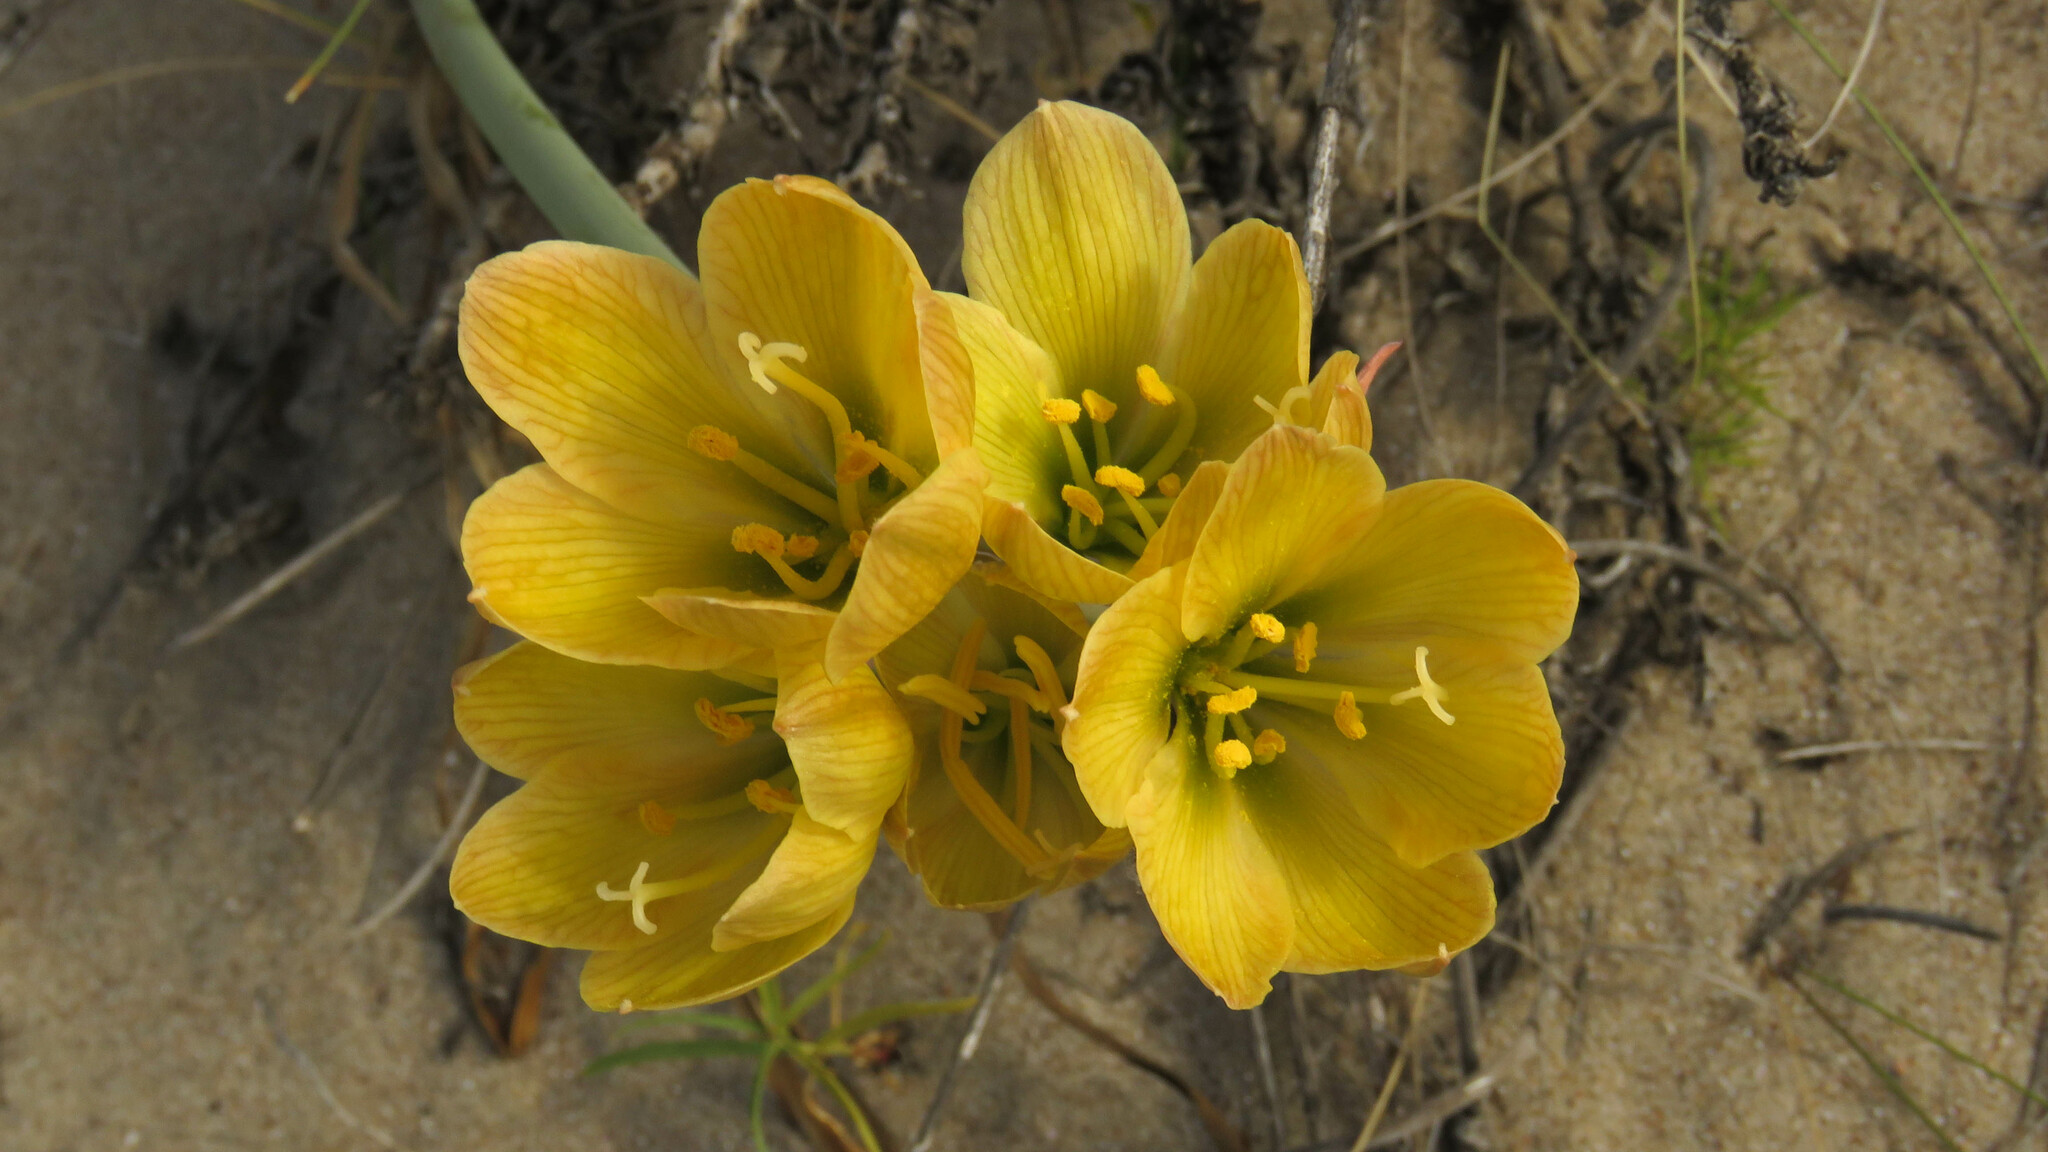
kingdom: Plantae
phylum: Tracheophyta
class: Liliopsida
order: Asparagales
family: Amaryllidaceae
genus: Zephyranthes
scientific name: Zephyranthes gilliesiana
